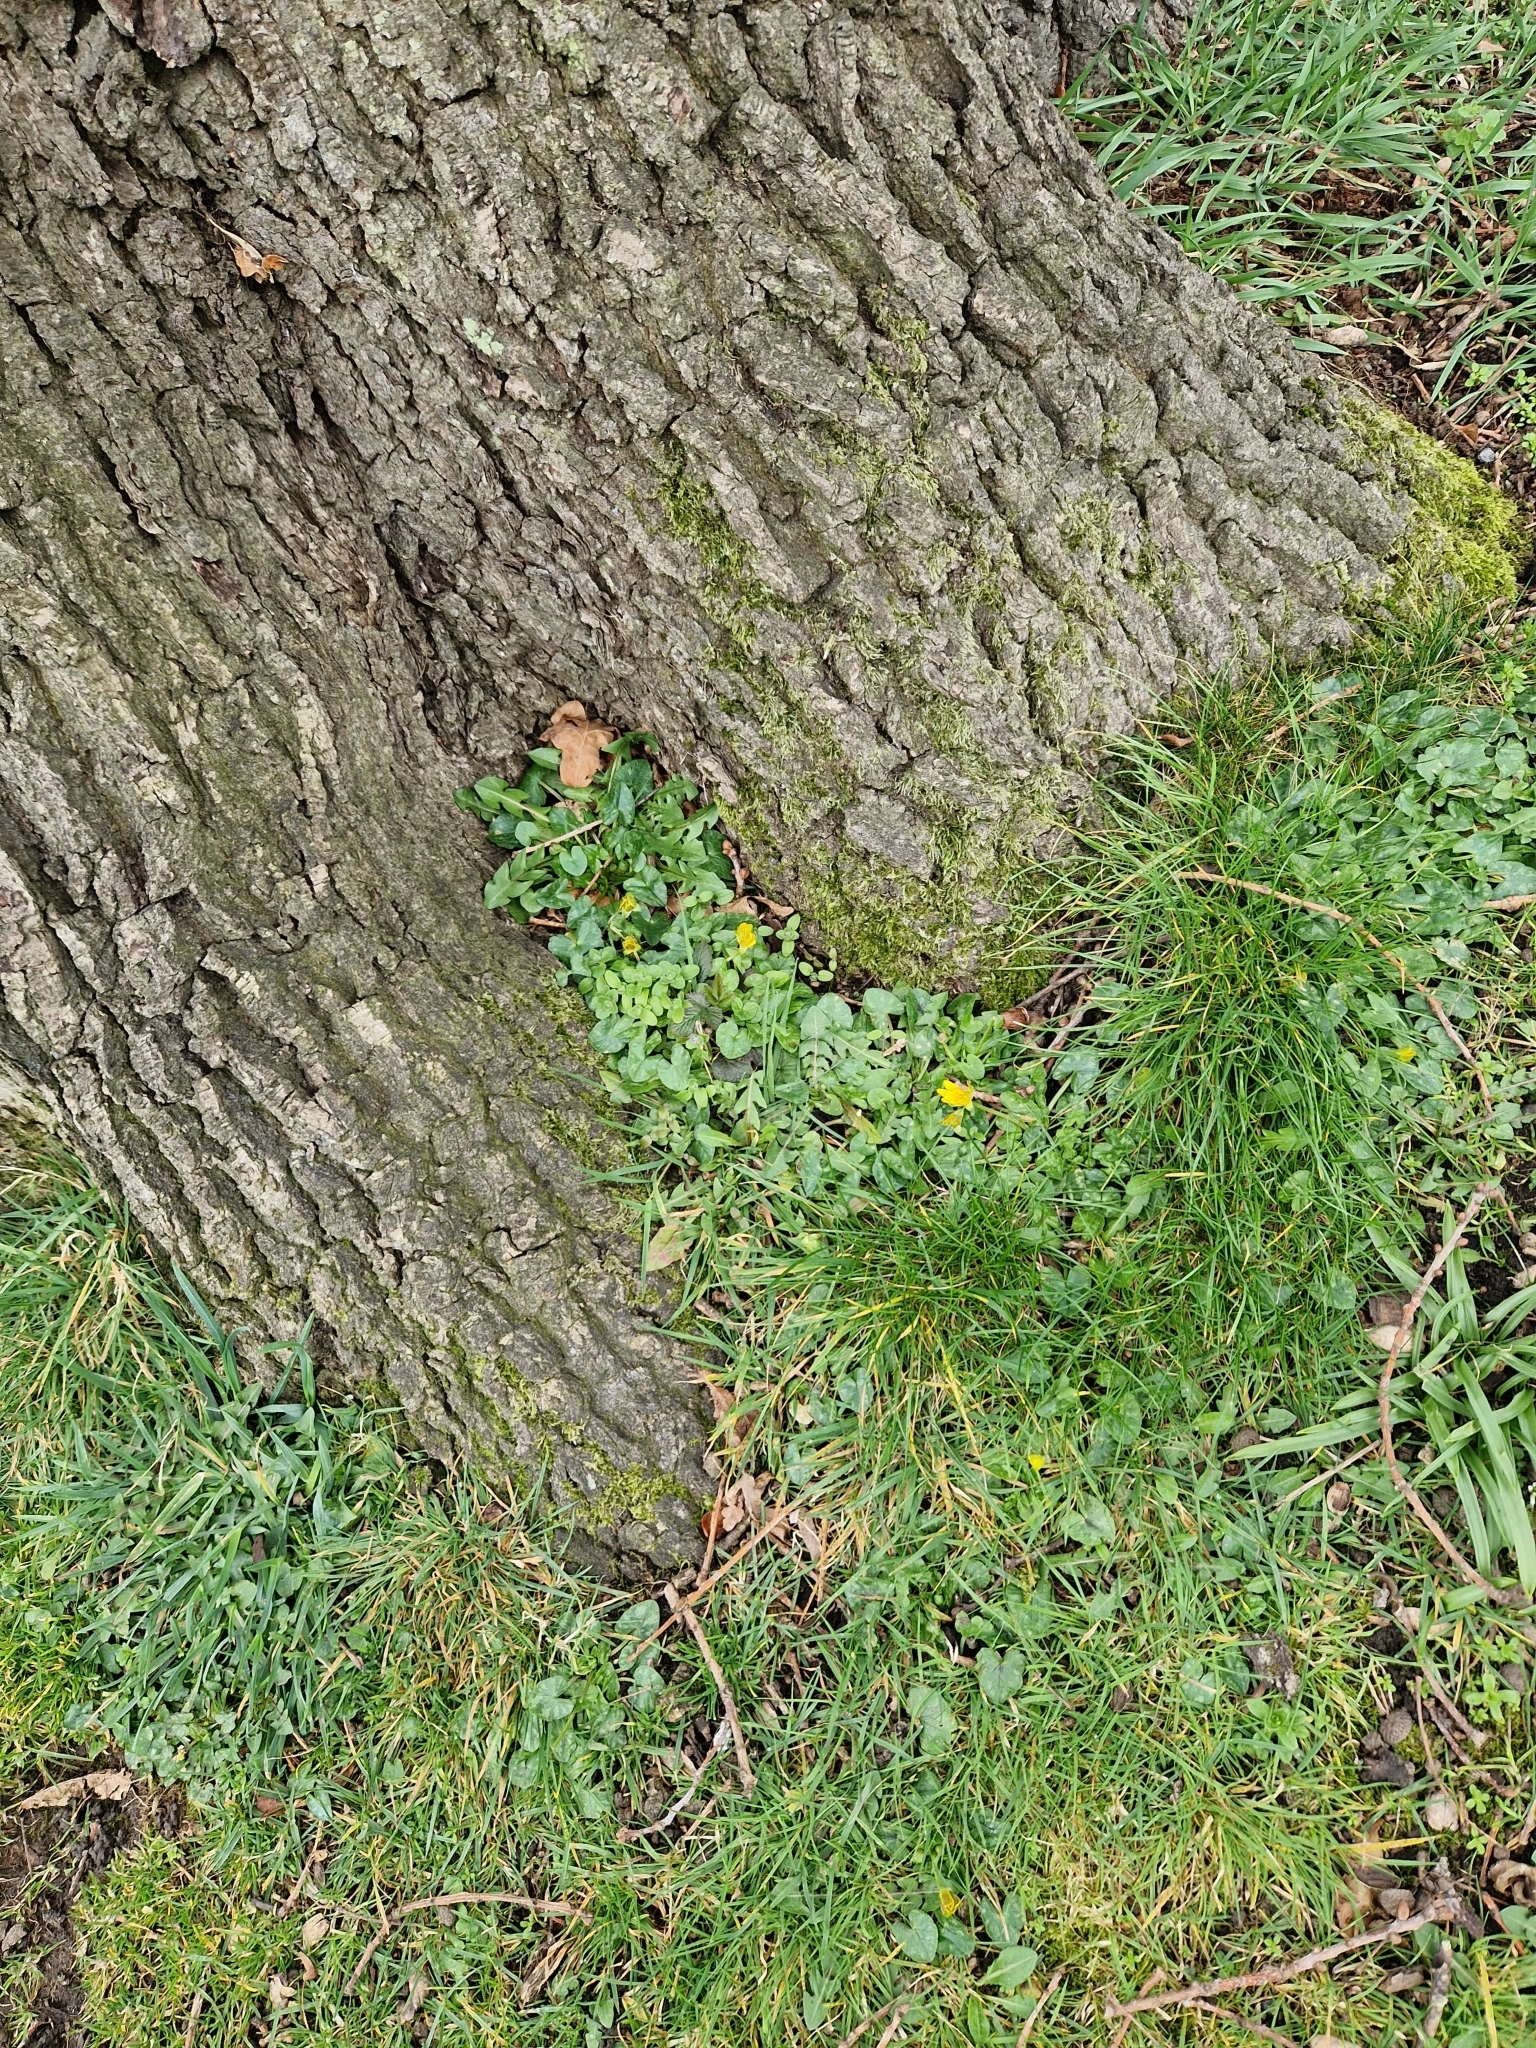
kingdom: Plantae
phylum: Tracheophyta
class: Magnoliopsida
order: Ranunculales
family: Ranunculaceae
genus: Ficaria
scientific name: Ficaria verna
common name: Lesser celandine
